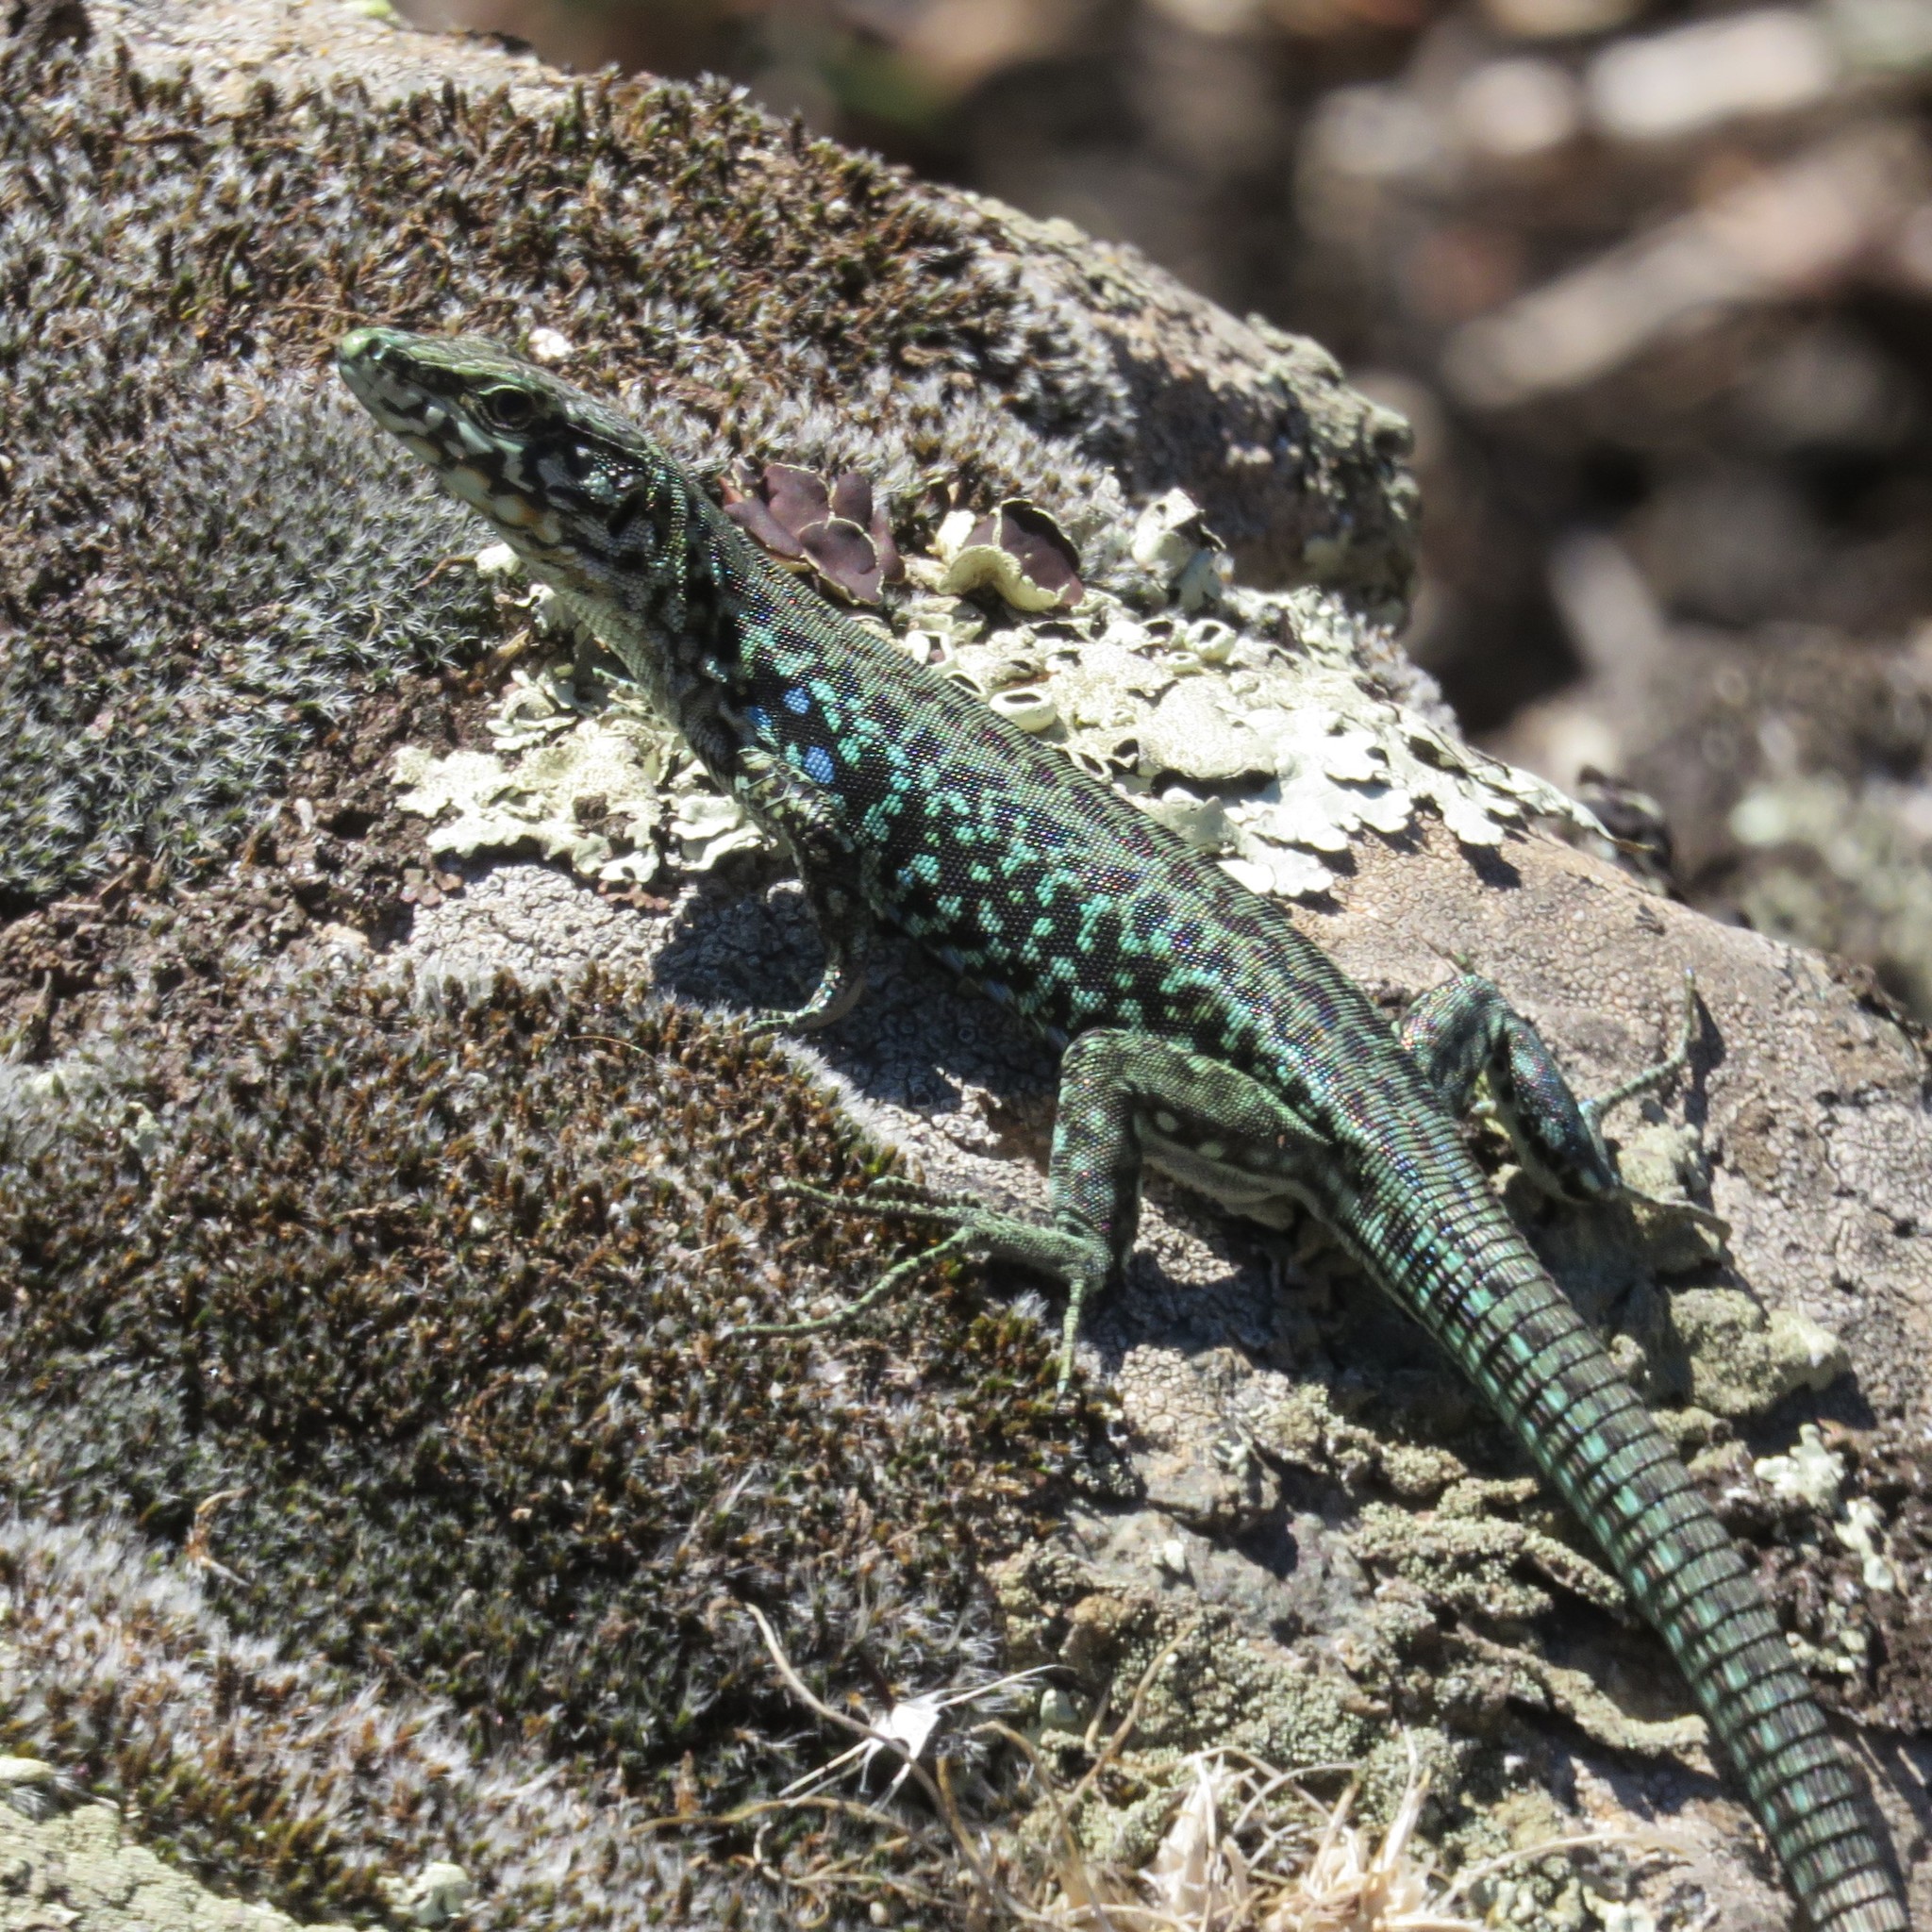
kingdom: Animalia
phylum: Chordata
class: Squamata
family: Lacertidae
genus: Podarcis
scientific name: Podarcis tiliguerta
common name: Tyrrhenian wall lizard
